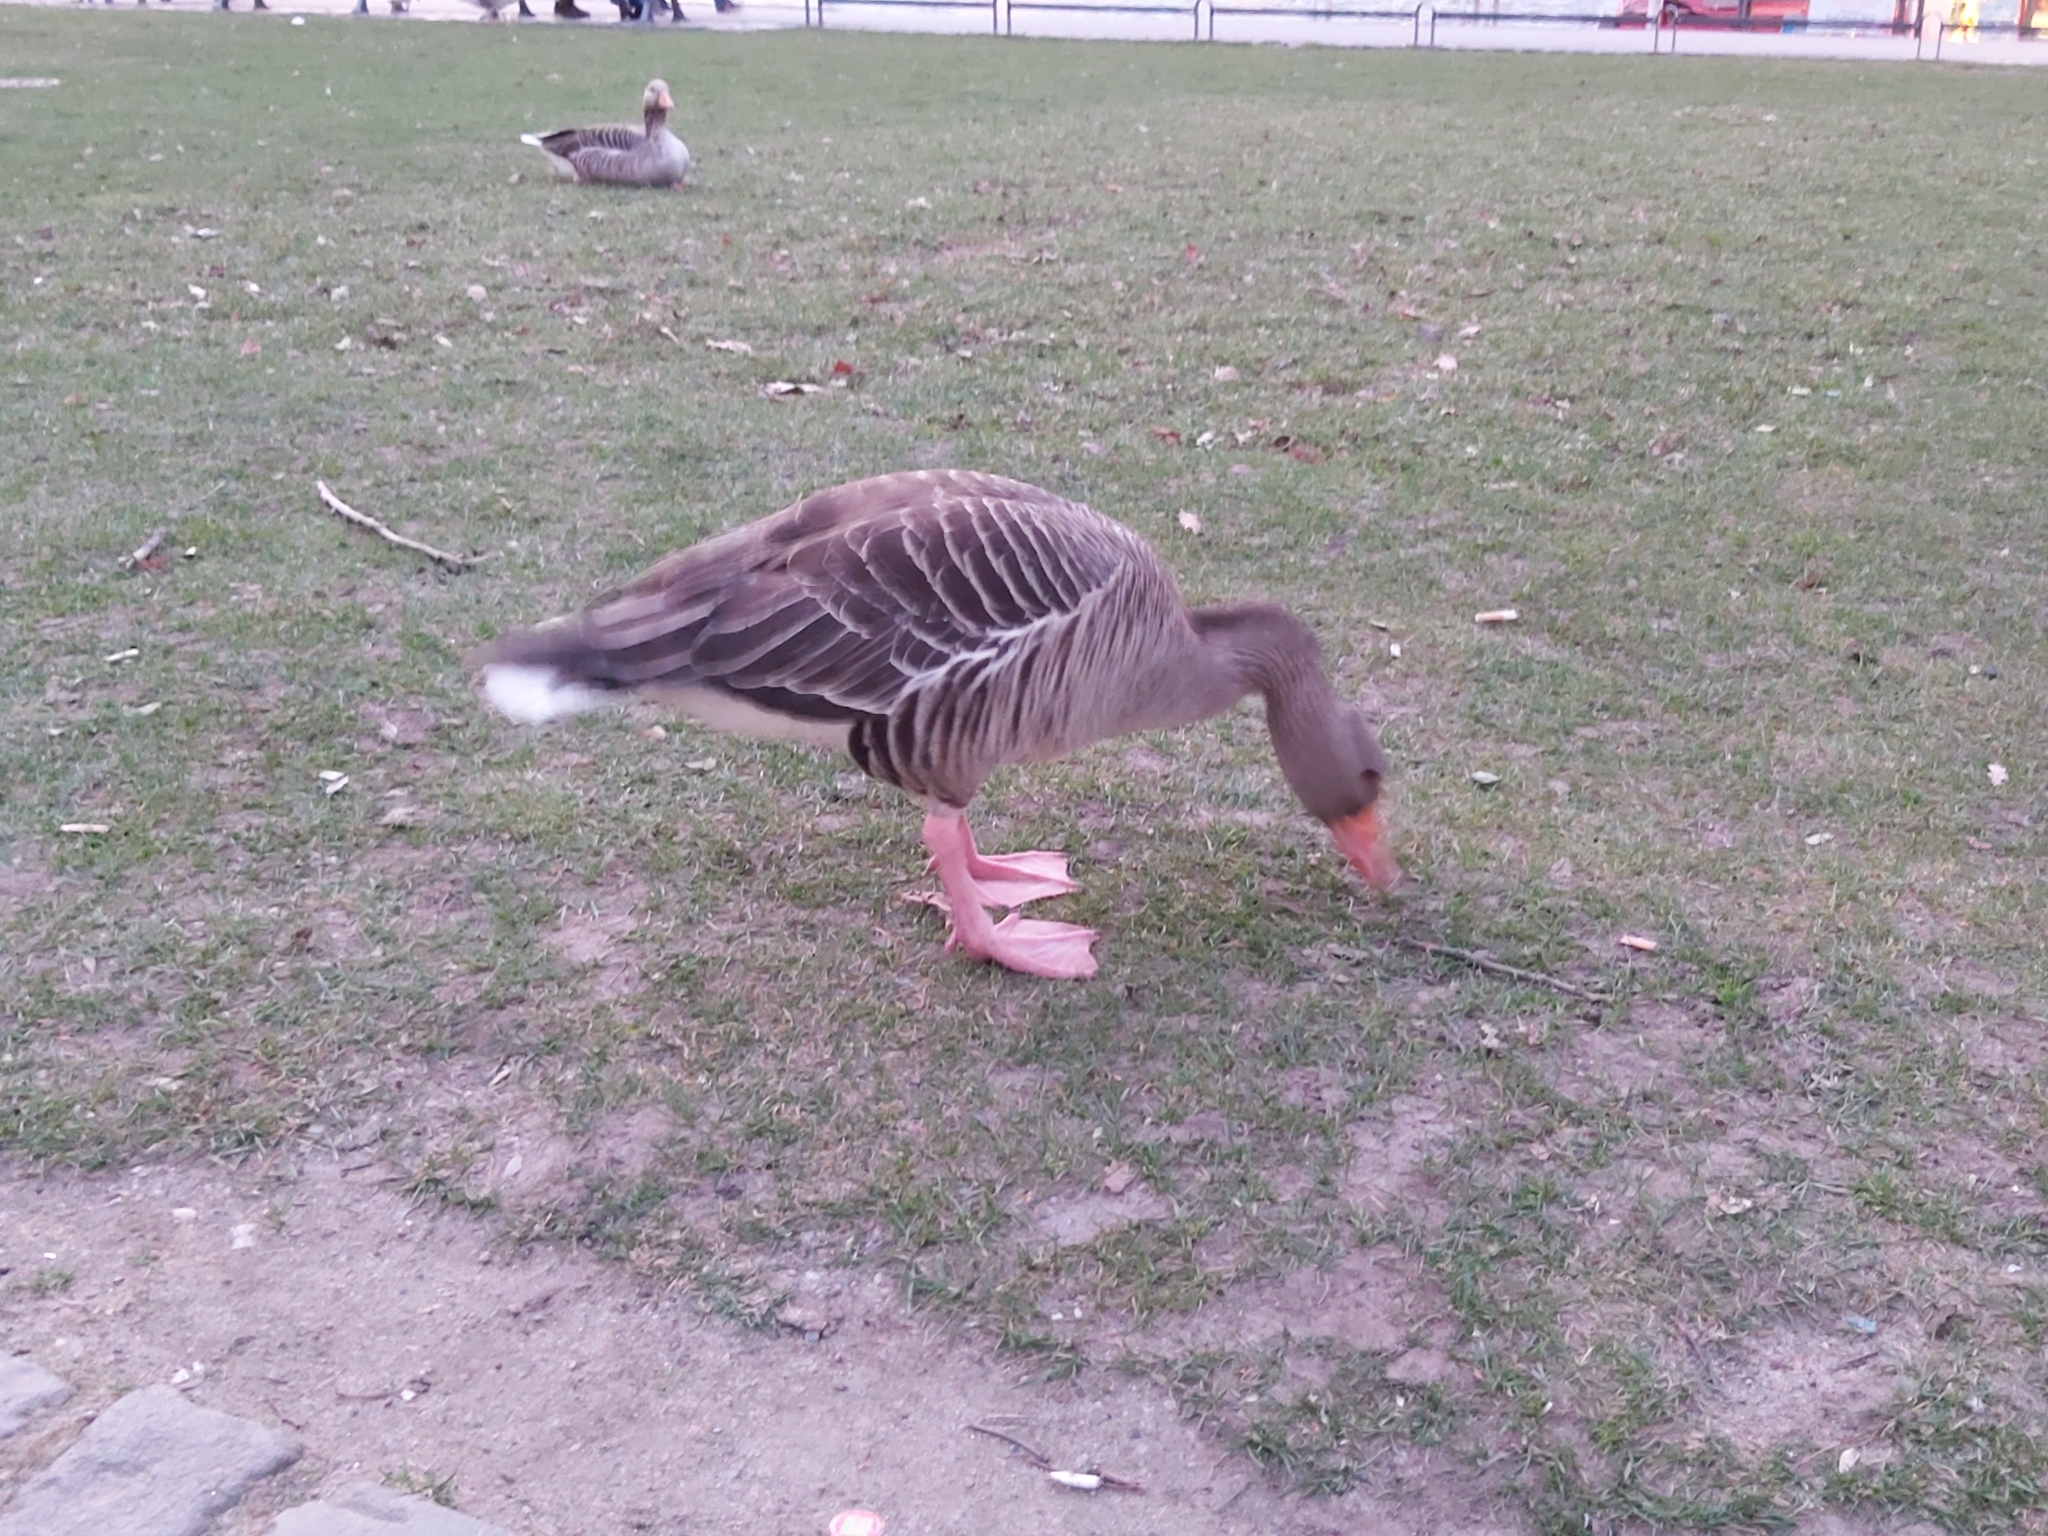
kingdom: Animalia
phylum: Chordata
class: Aves
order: Anseriformes
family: Anatidae
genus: Anser
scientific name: Anser anser
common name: Greylag goose
